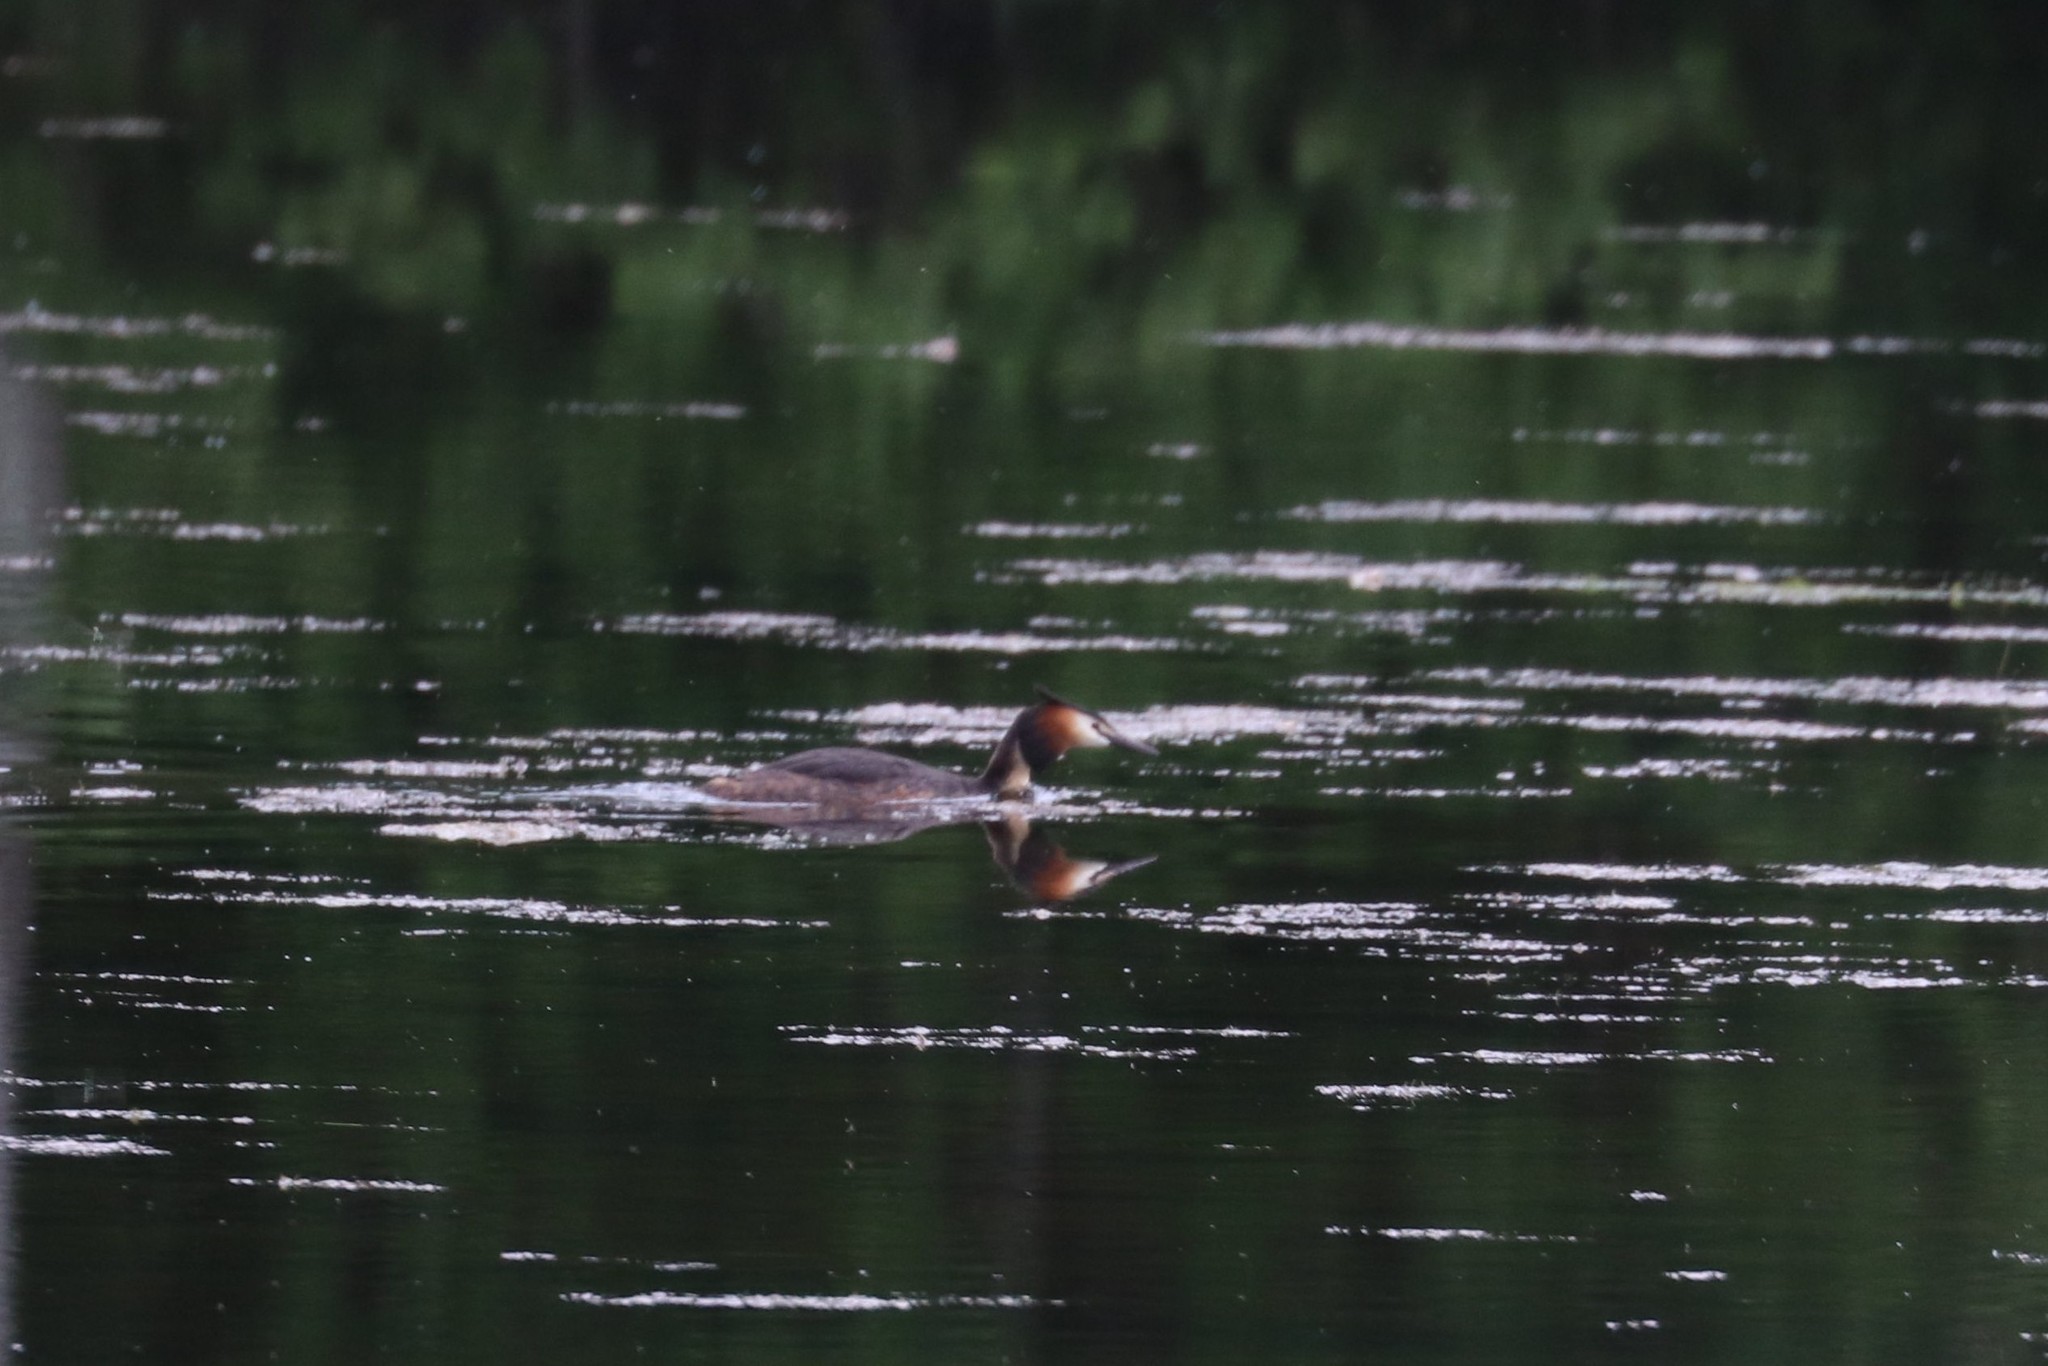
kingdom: Animalia
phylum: Chordata
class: Aves
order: Podicipediformes
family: Podicipedidae
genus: Podiceps
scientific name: Podiceps cristatus
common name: Great crested grebe
